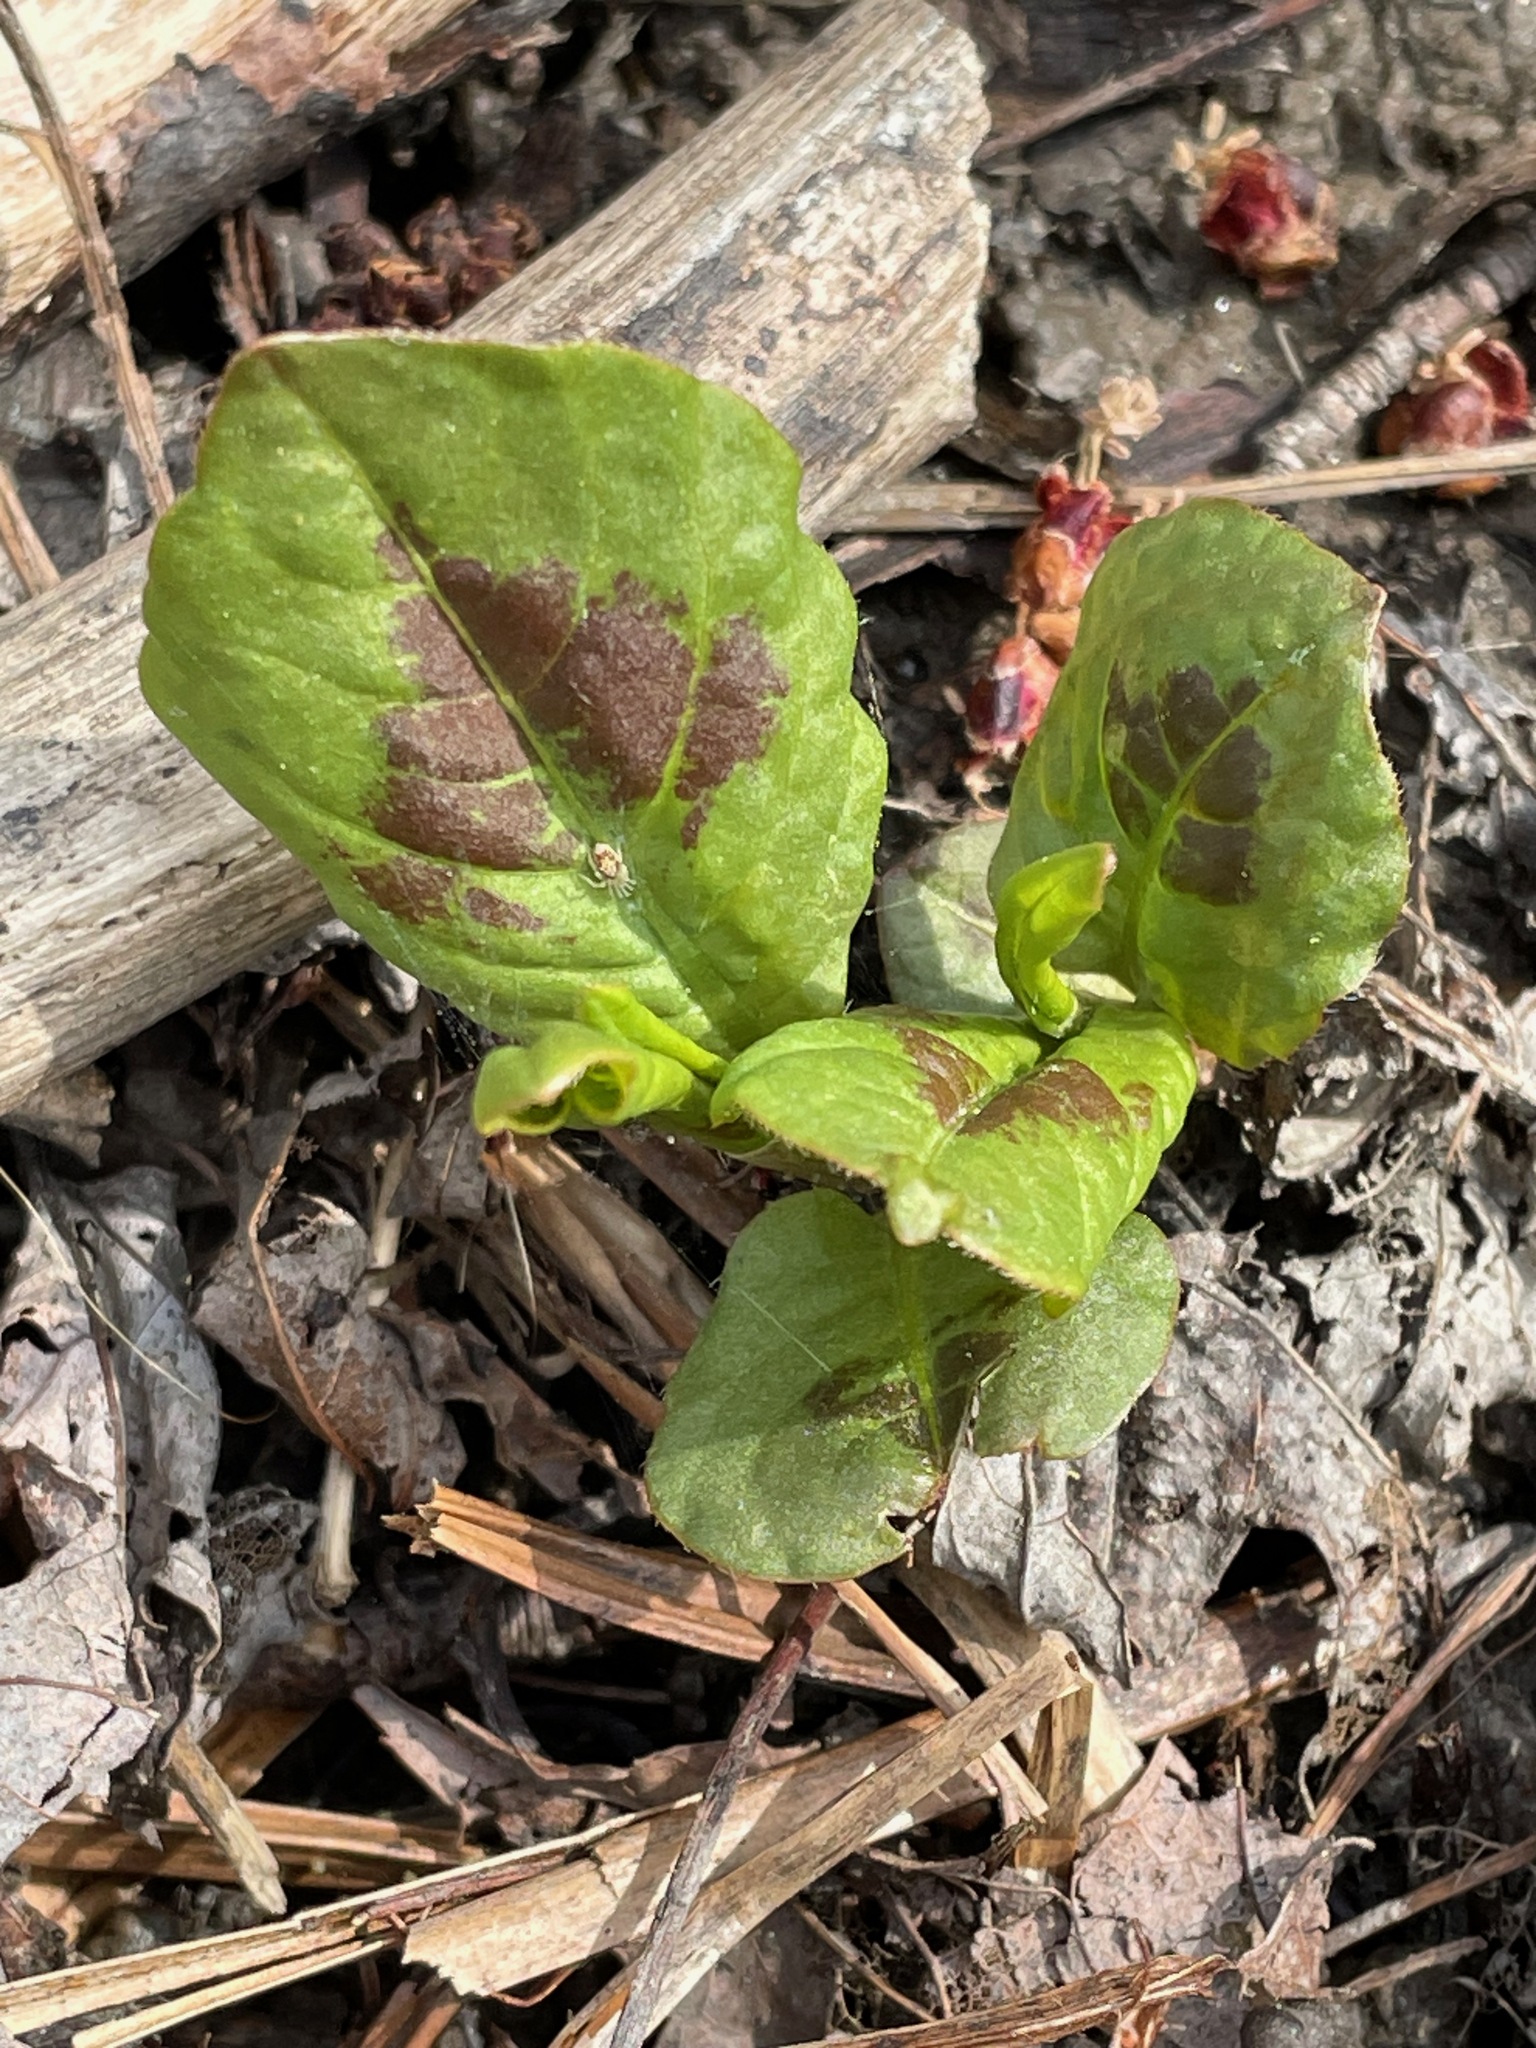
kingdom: Plantae
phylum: Tracheophyta
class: Magnoliopsida
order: Caryophyllales
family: Polygonaceae
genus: Persicaria
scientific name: Persicaria virginiana
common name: Jumpseed
